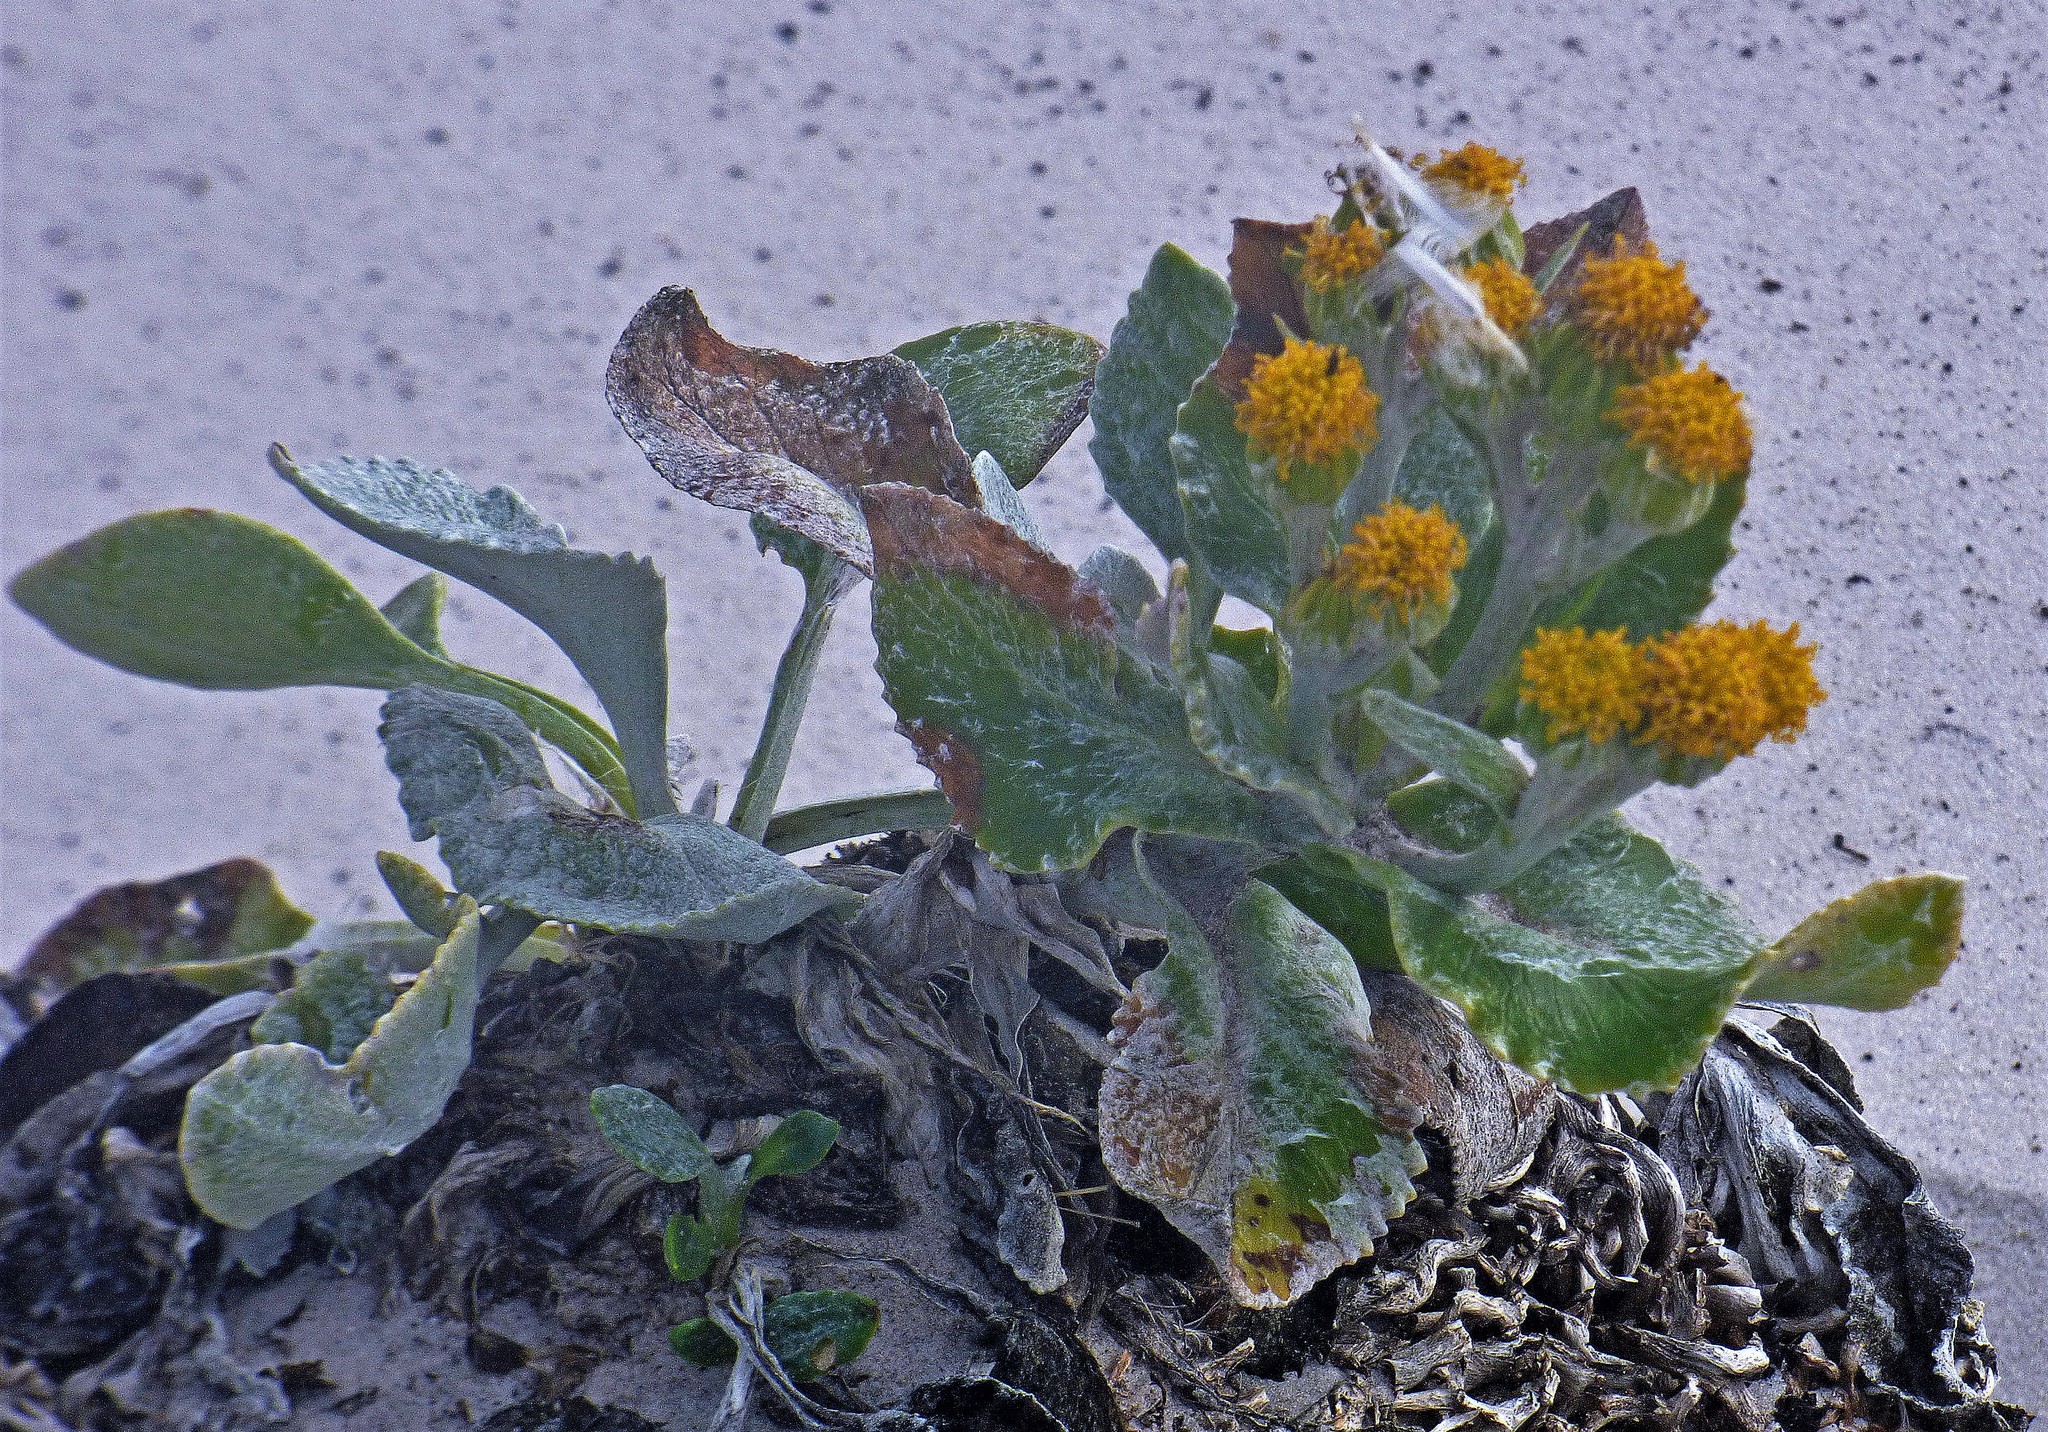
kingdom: Plantae
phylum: Tracheophyta
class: Magnoliopsida
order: Asterales
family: Asteraceae
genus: Senecio
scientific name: Senecio candidans
